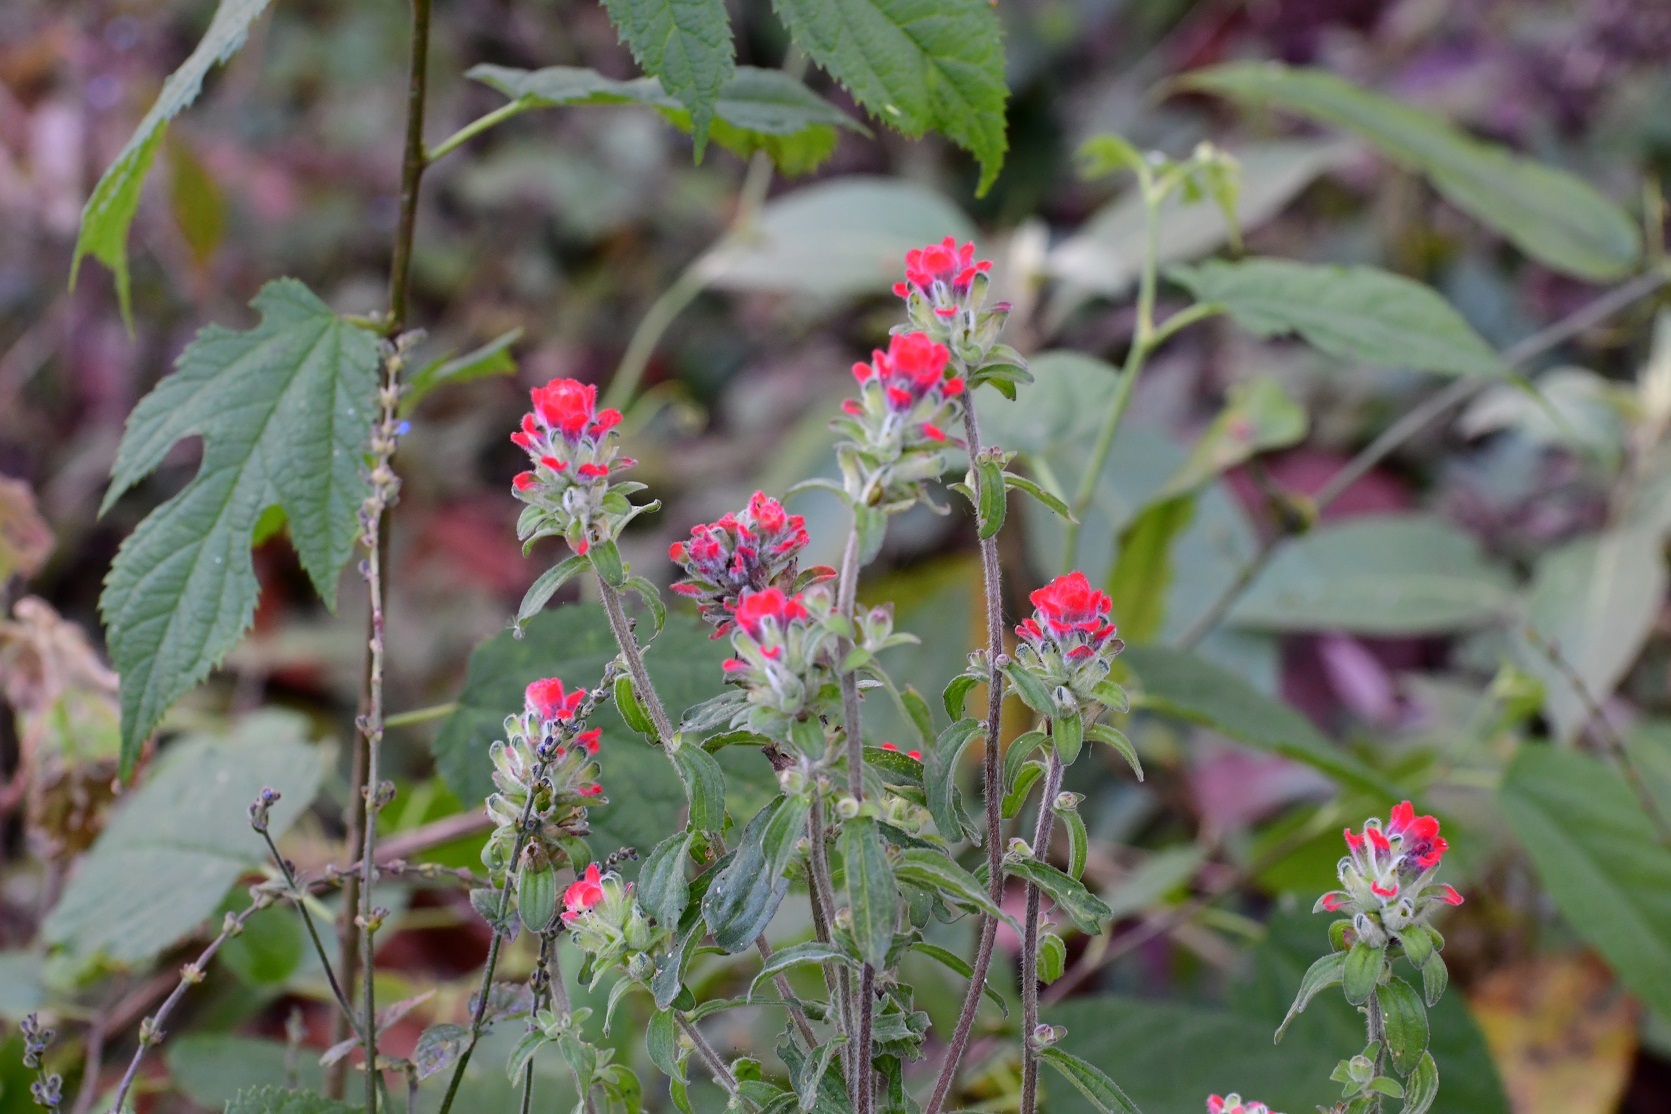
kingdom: Plantae
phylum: Tracheophyta
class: Magnoliopsida
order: Lamiales
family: Orobanchaceae
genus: Castilleja
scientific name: Castilleja arvensis
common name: Indian paintbrush
